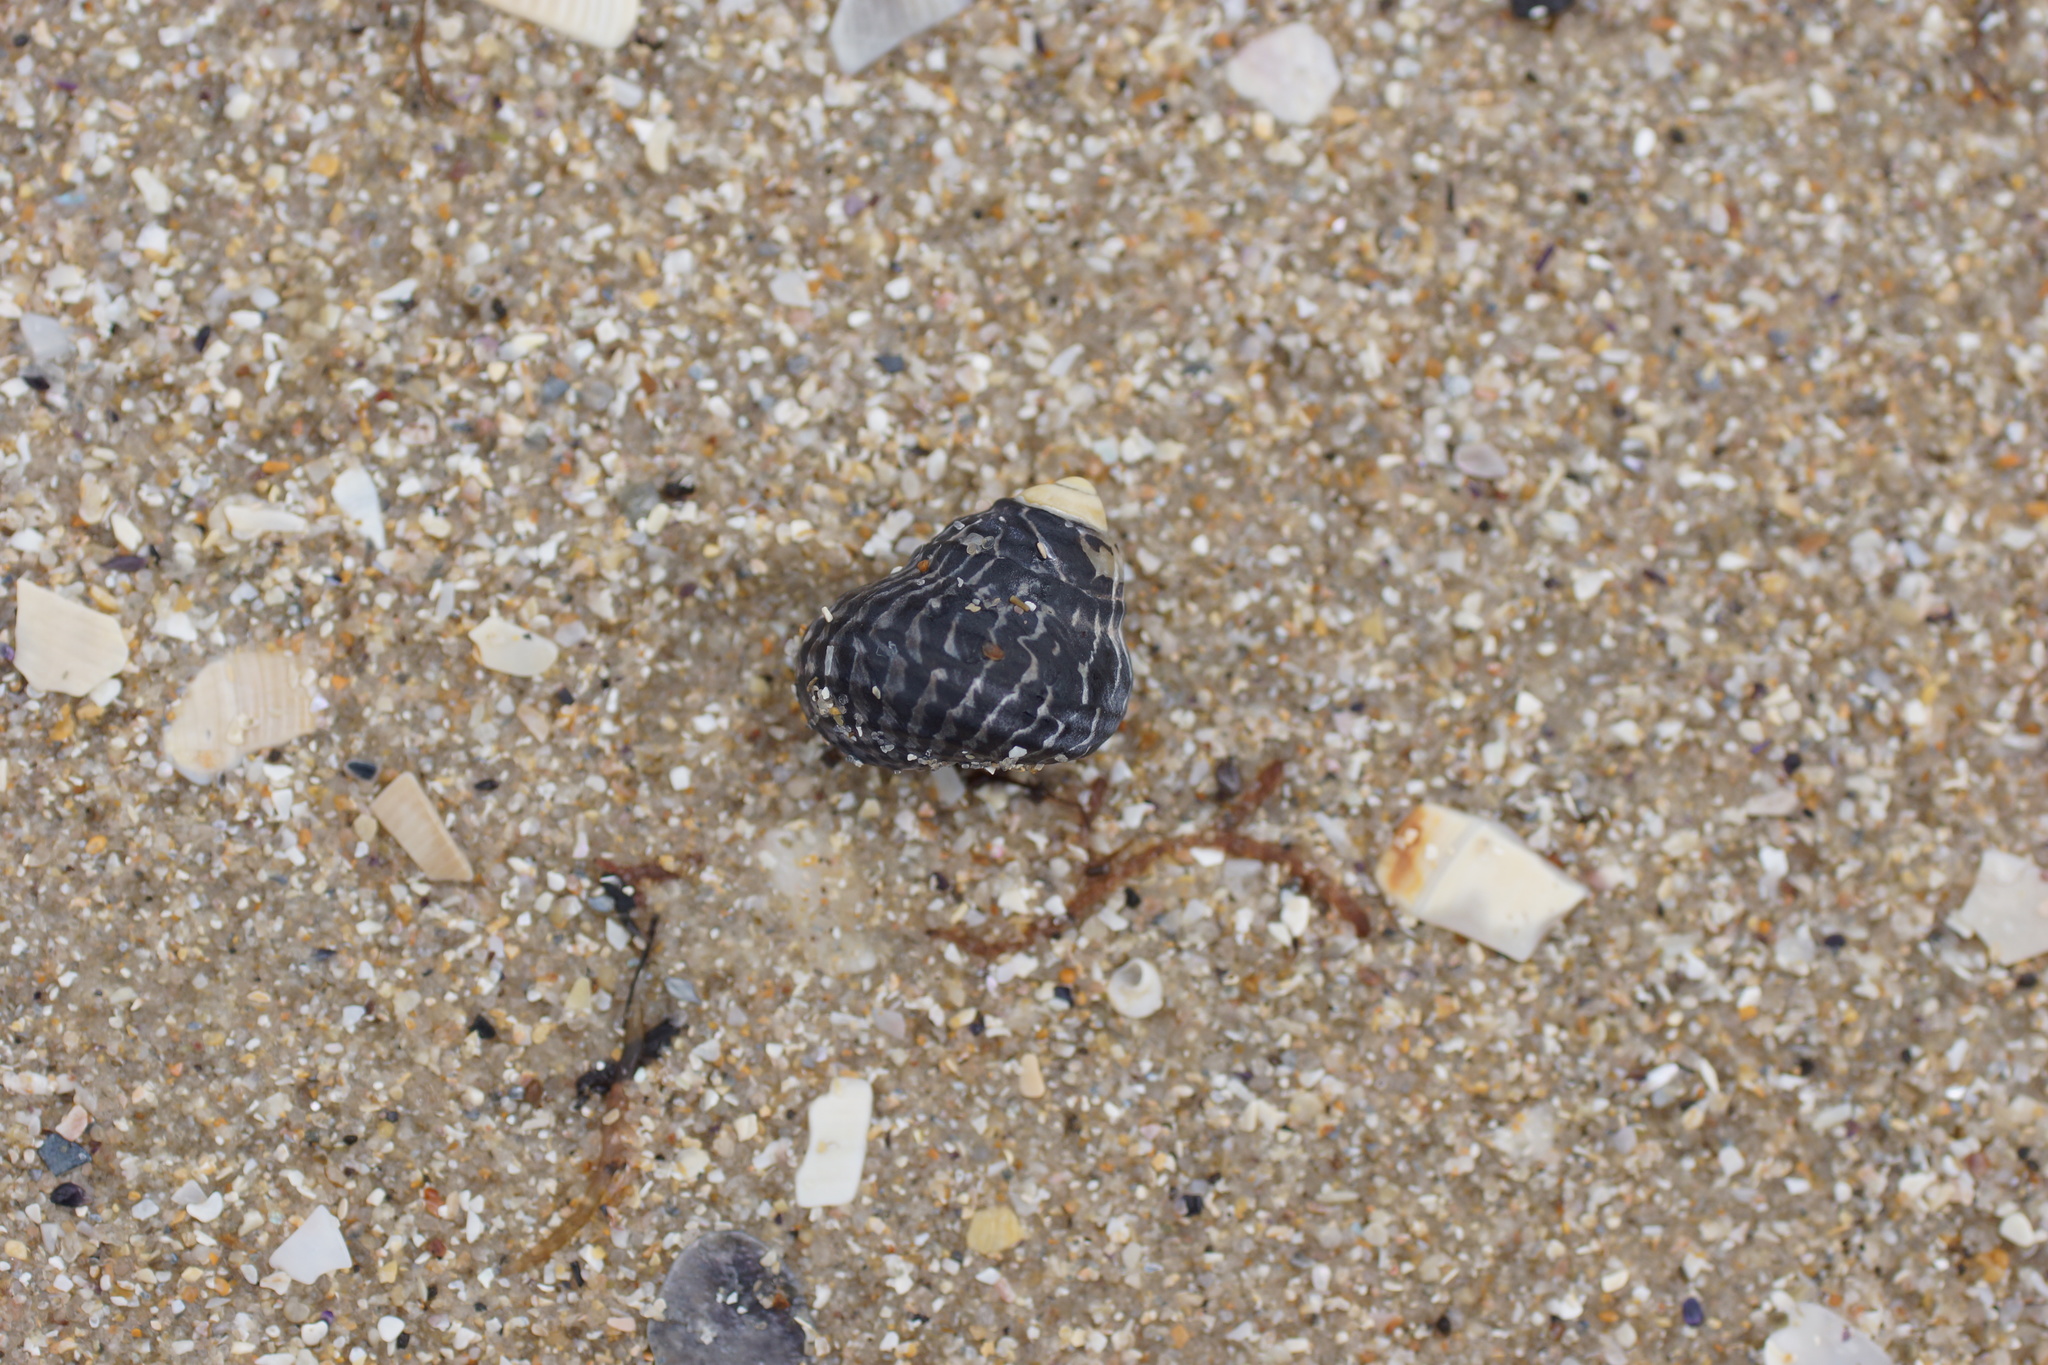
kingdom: Animalia
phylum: Mollusca
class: Gastropoda
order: Trochida
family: Trochidae
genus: Austrocochlea
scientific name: Austrocochlea porcata
